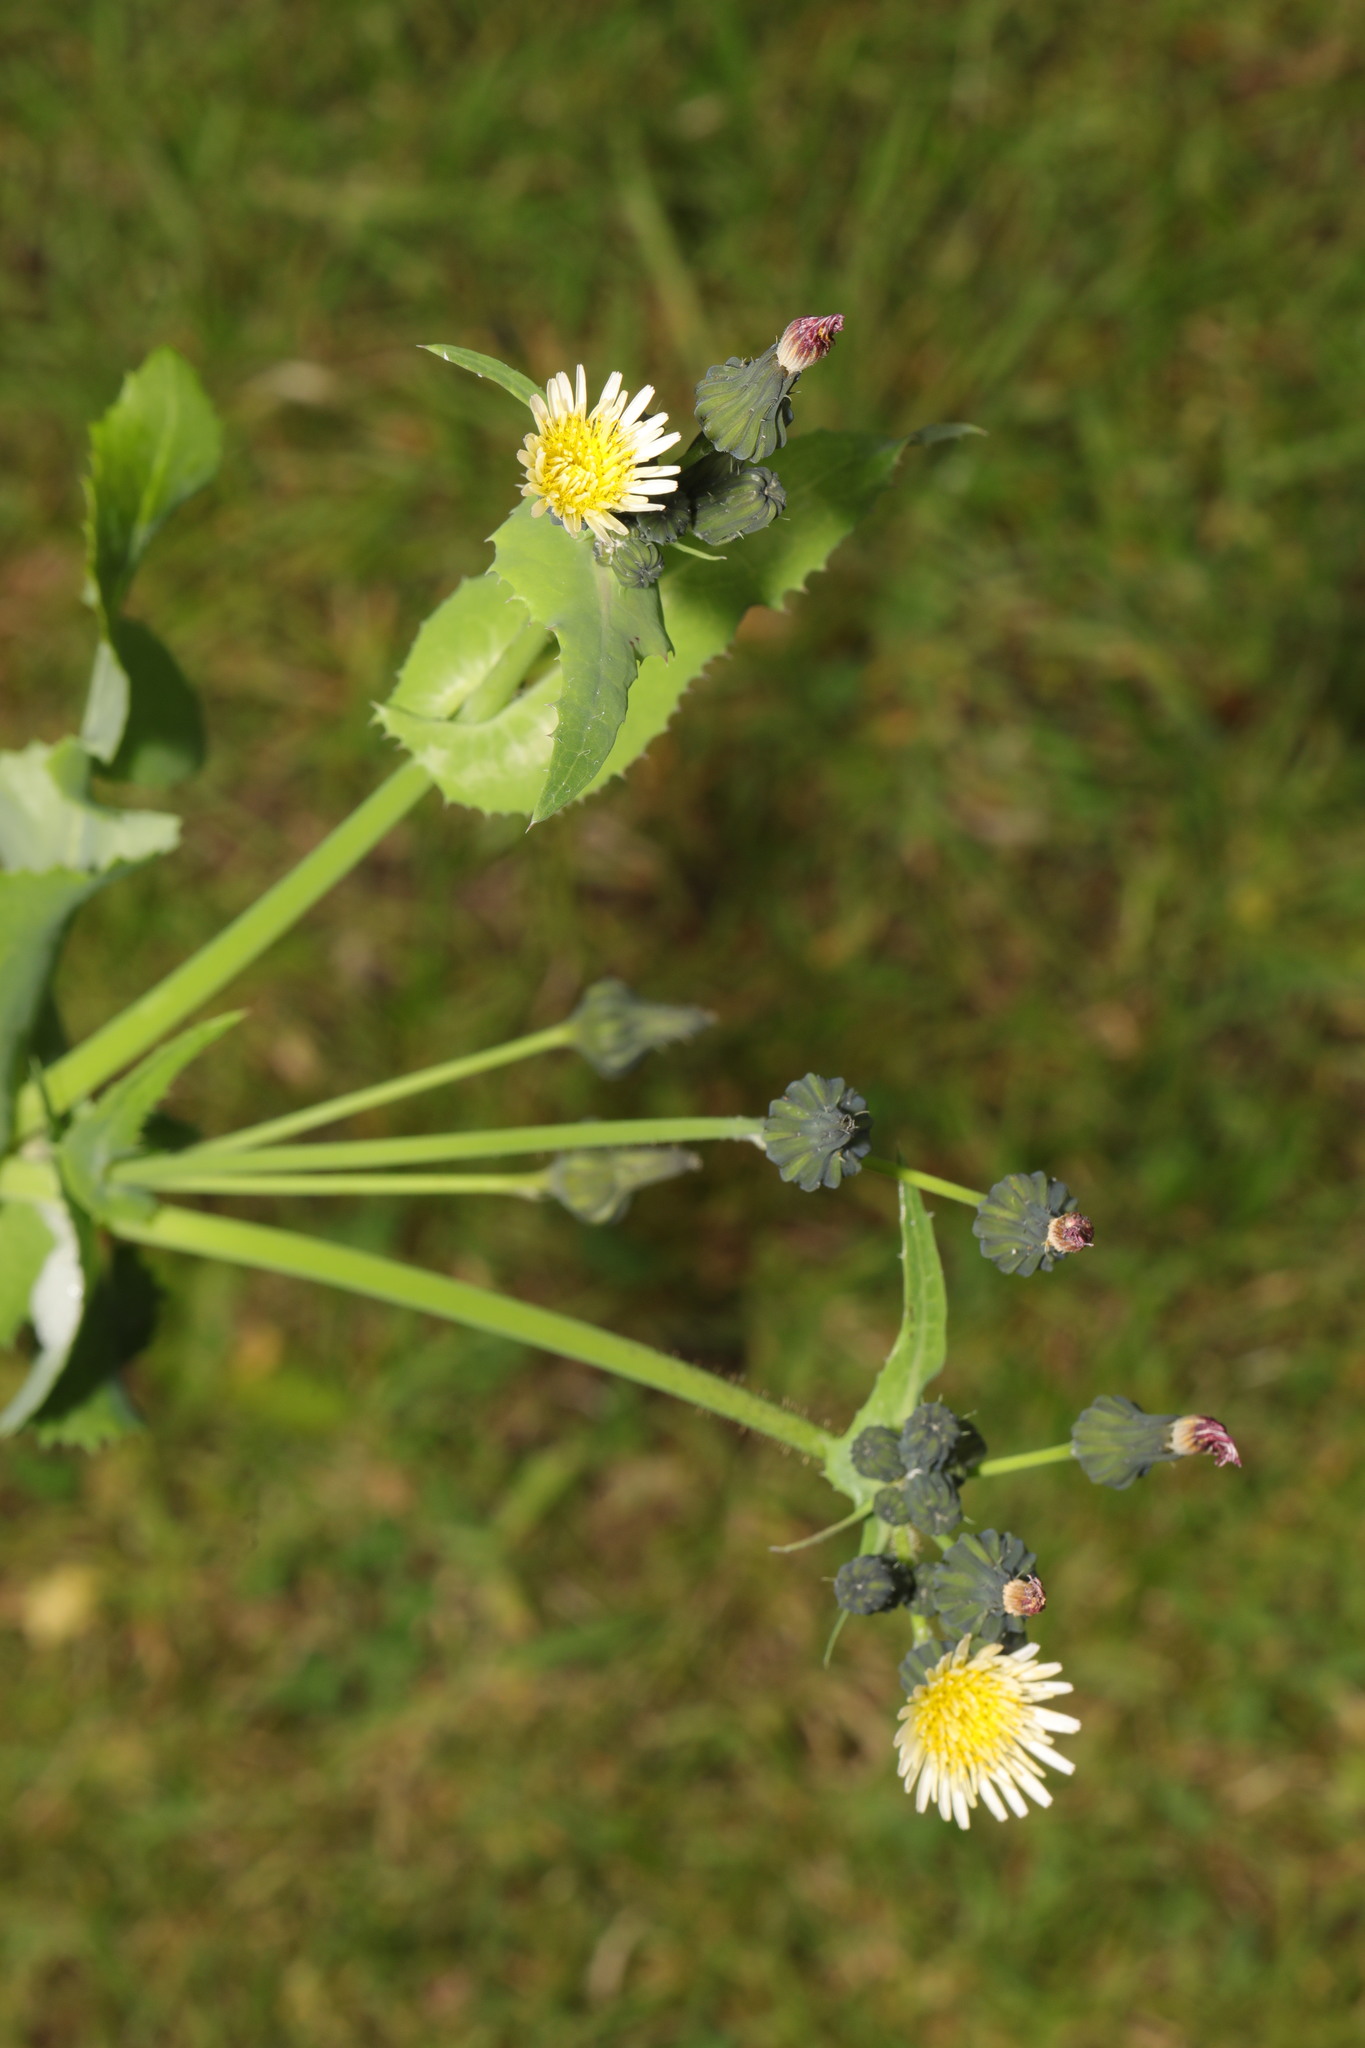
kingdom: Plantae
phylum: Tracheophyta
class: Magnoliopsida
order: Asterales
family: Asteraceae
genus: Sonchus
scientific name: Sonchus oleraceus
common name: Common sowthistle
